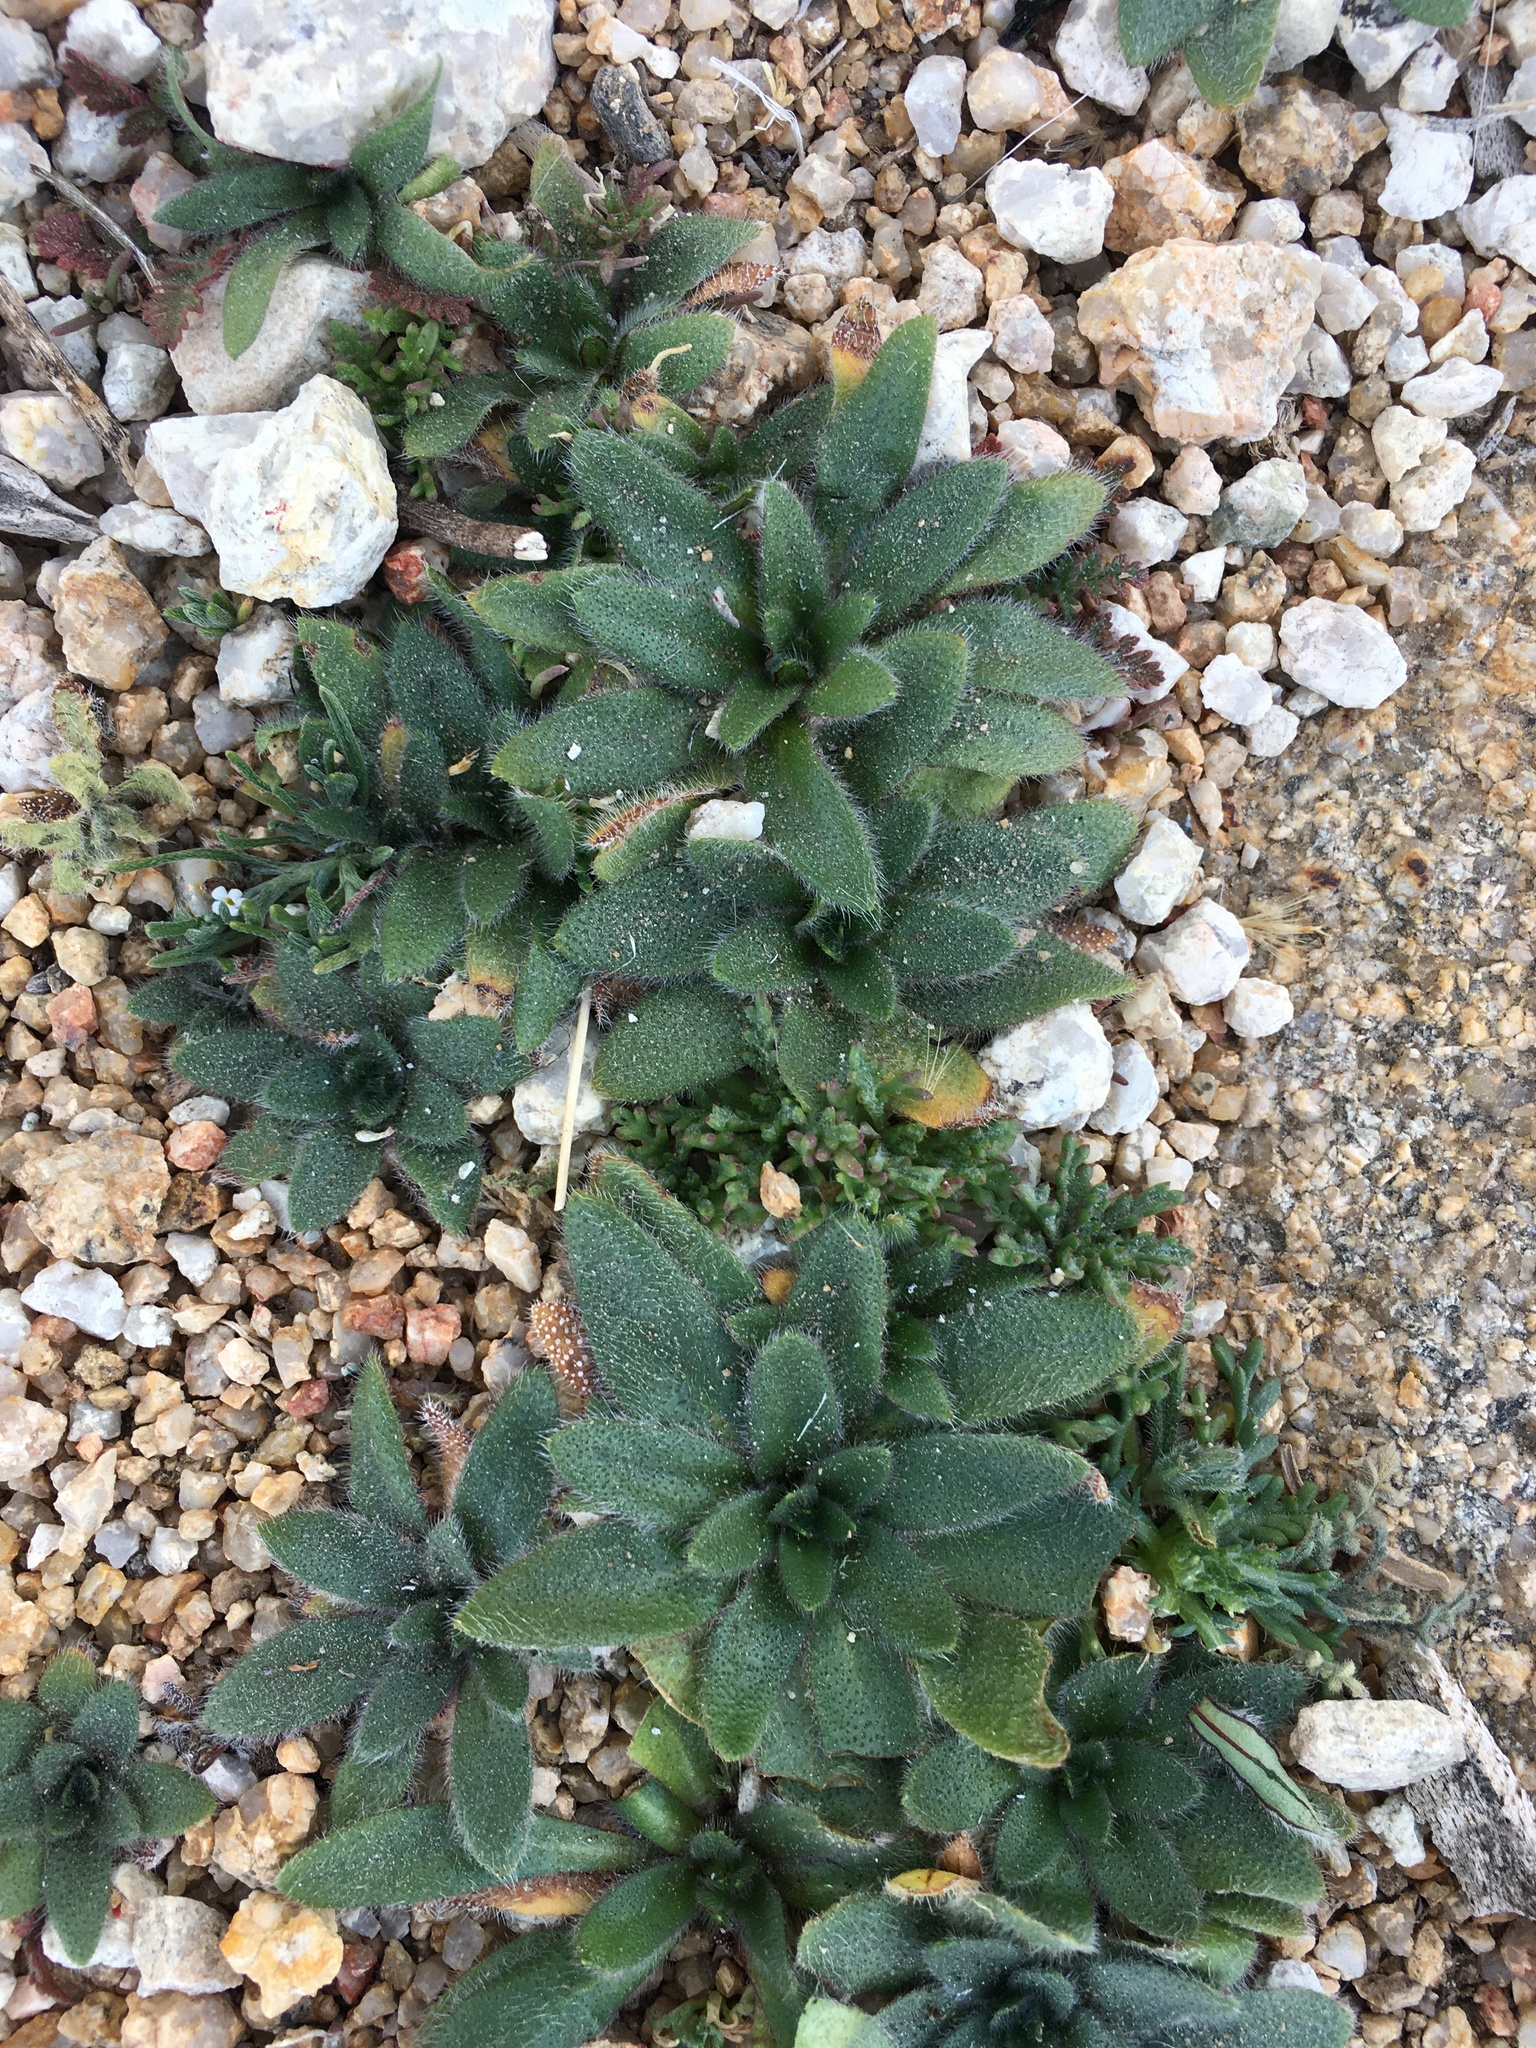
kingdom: Plantae
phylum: Tracheophyta
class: Magnoliopsida
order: Boraginales
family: Boraginaceae
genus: Plagiobothrys
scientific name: Plagiobothrys arizonicus
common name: Arizona popcorn-flower
